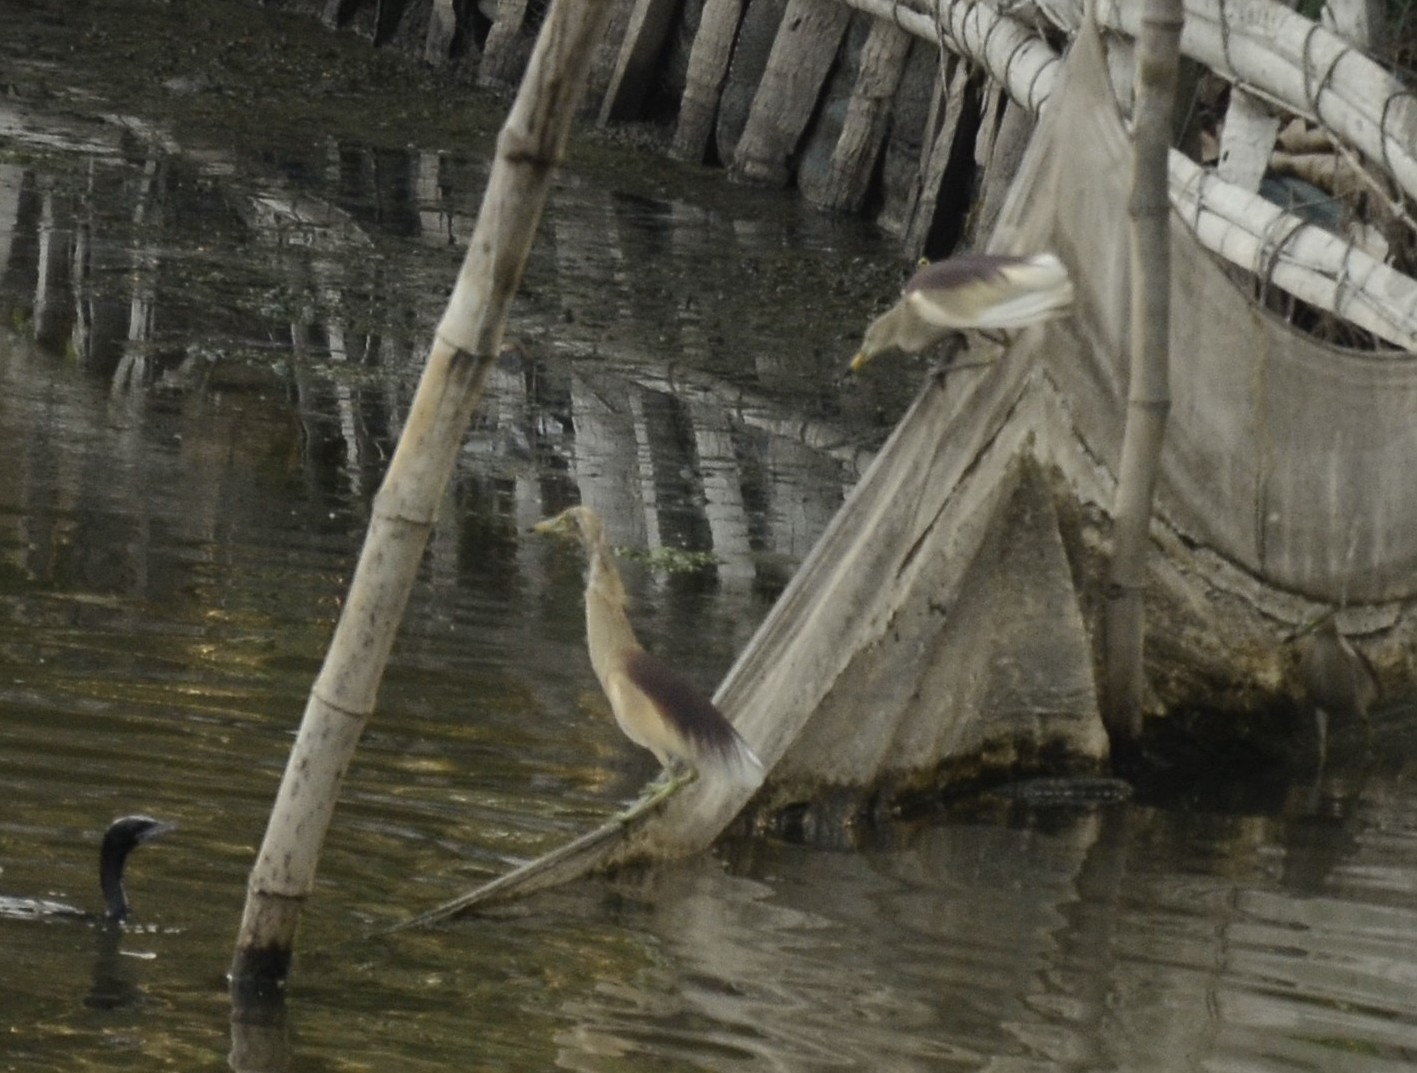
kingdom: Animalia
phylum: Chordata
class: Aves
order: Pelecaniformes
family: Ardeidae
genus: Ardeola
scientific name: Ardeola grayii
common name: Indian pond heron
